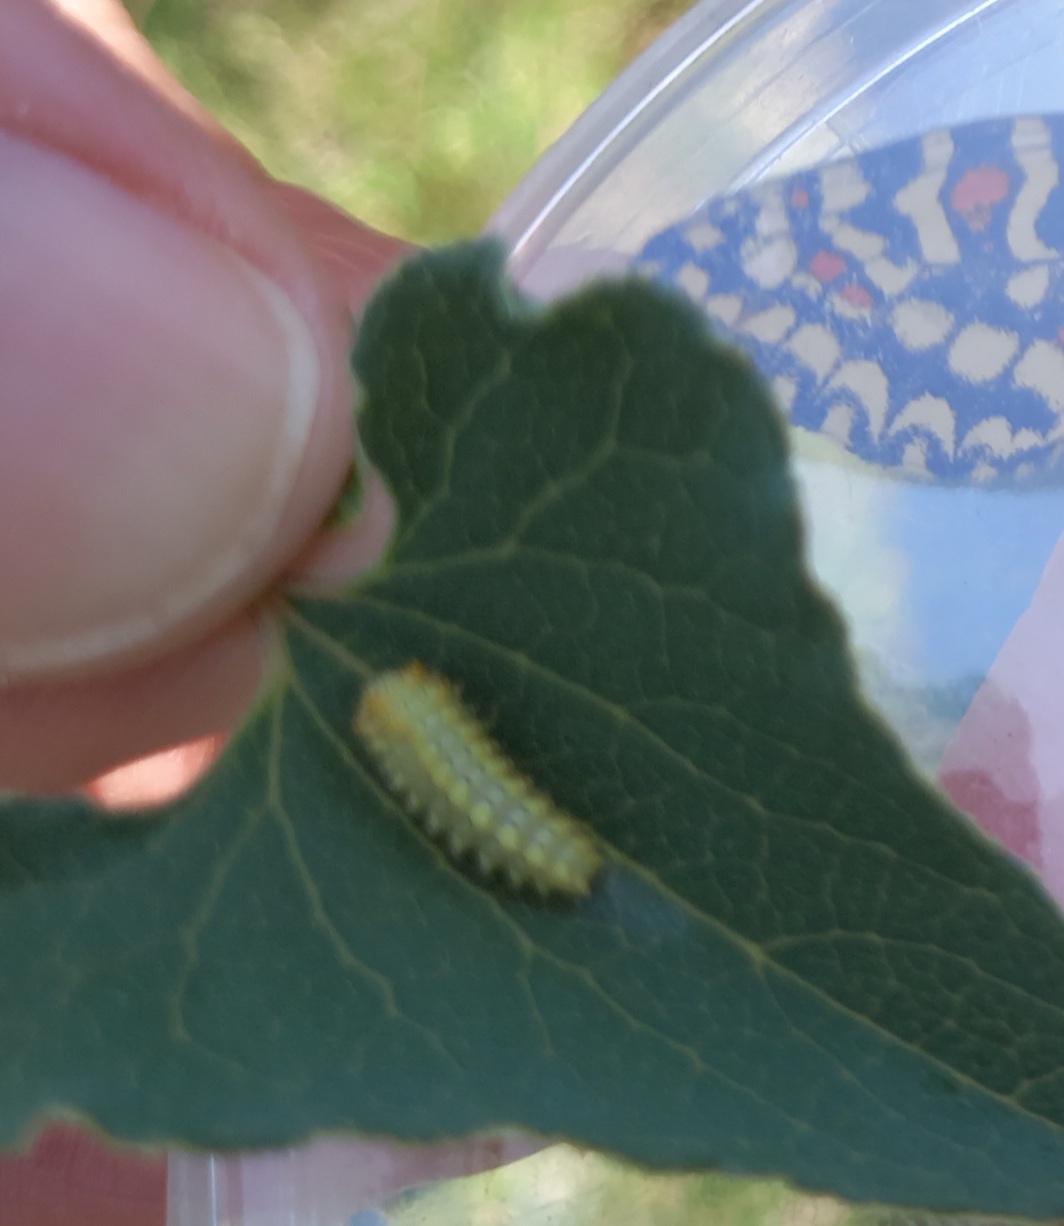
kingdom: Animalia
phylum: Arthropoda
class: Insecta
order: Lepidoptera
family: Papilionidae
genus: Zerynthia
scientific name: Zerynthia rumina
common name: Spanish festoon
